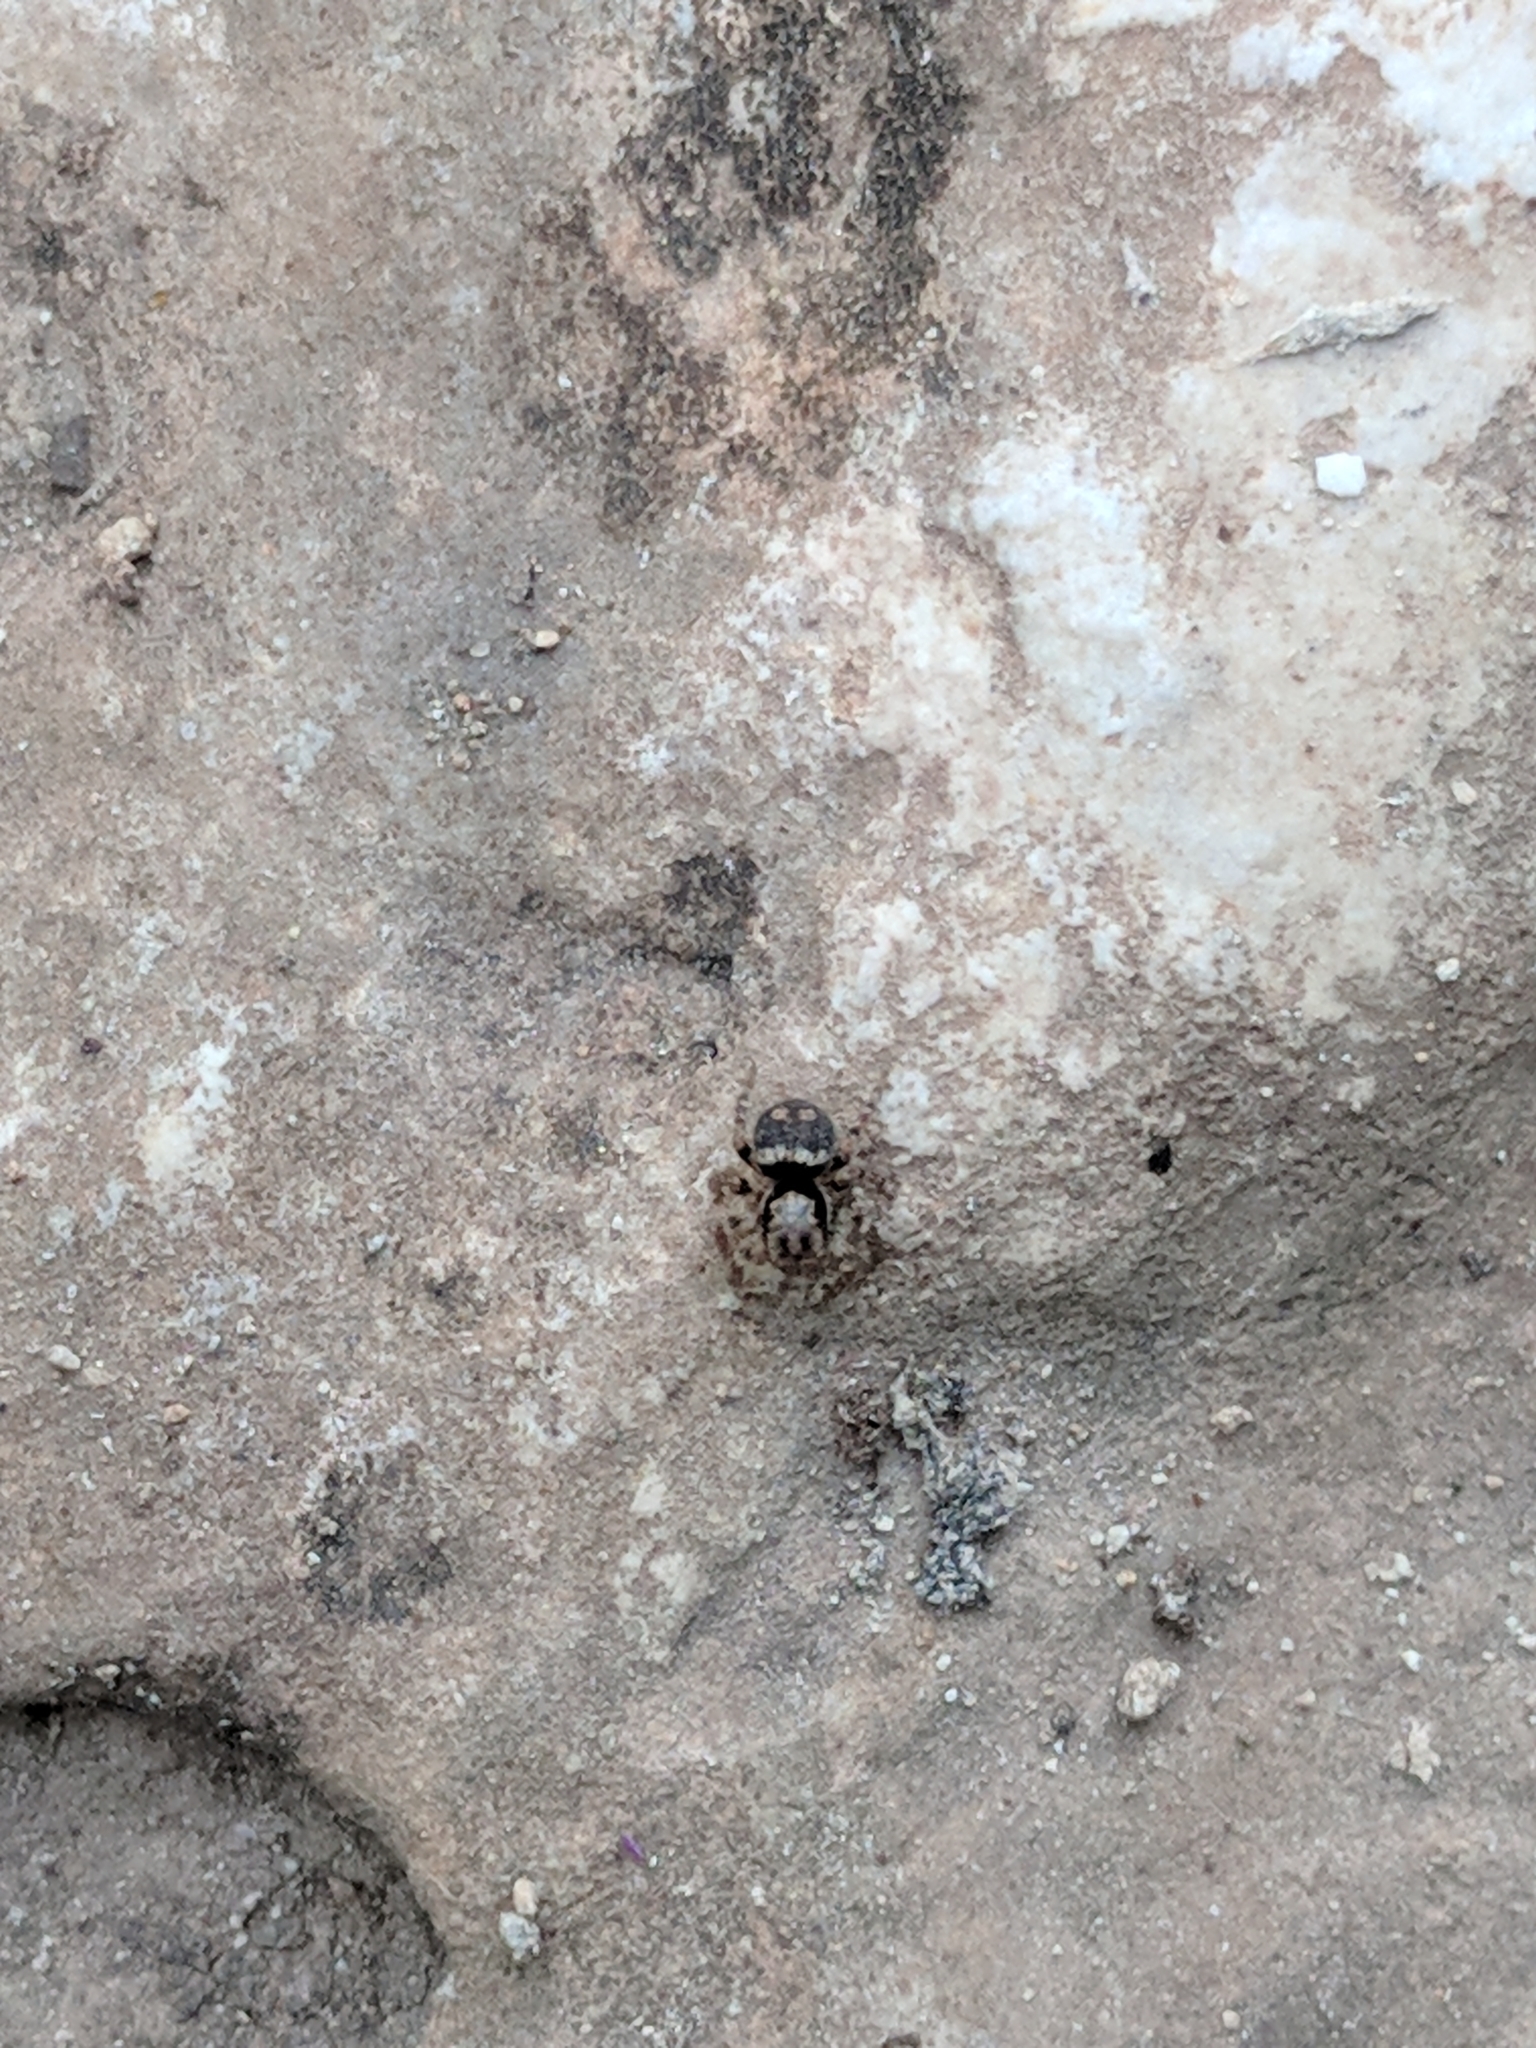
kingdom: Animalia
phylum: Arthropoda
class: Arachnida
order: Araneae
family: Salticidae
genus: Naphrys
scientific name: Naphrys acerba
